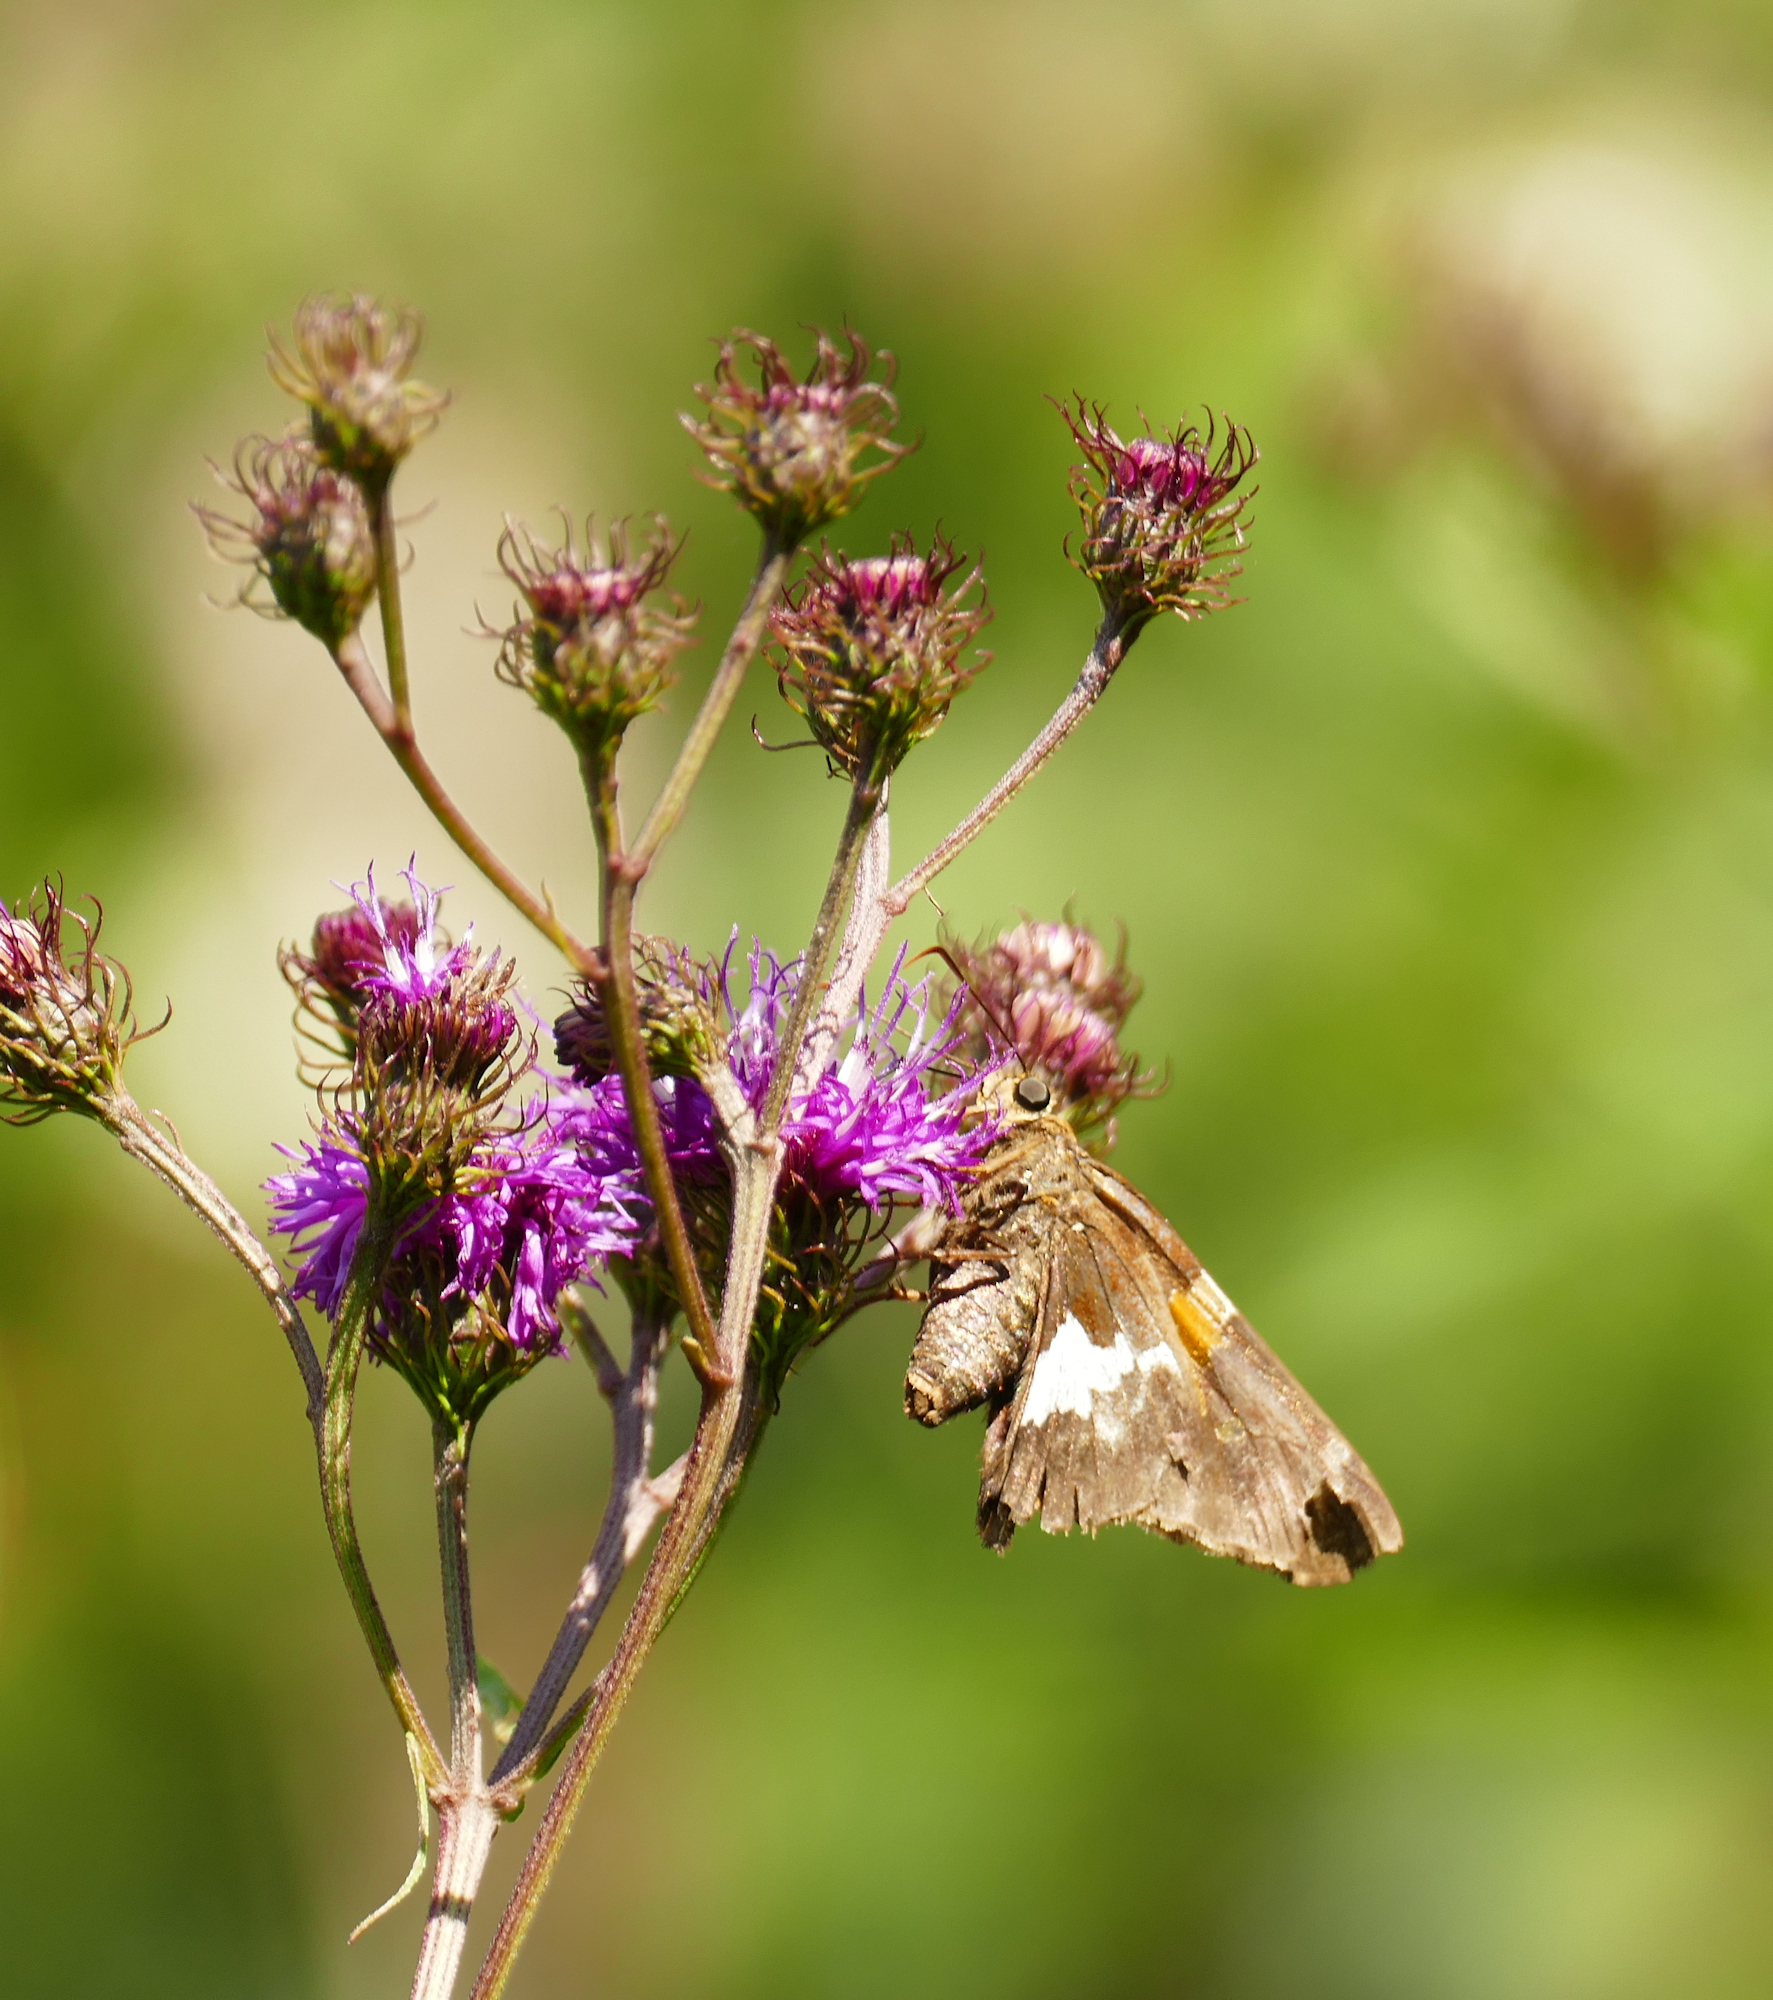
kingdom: Animalia
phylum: Arthropoda
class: Insecta
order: Lepidoptera
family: Hesperiidae
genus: Epargyreus
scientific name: Epargyreus clarus
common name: Silver-spotted skipper
